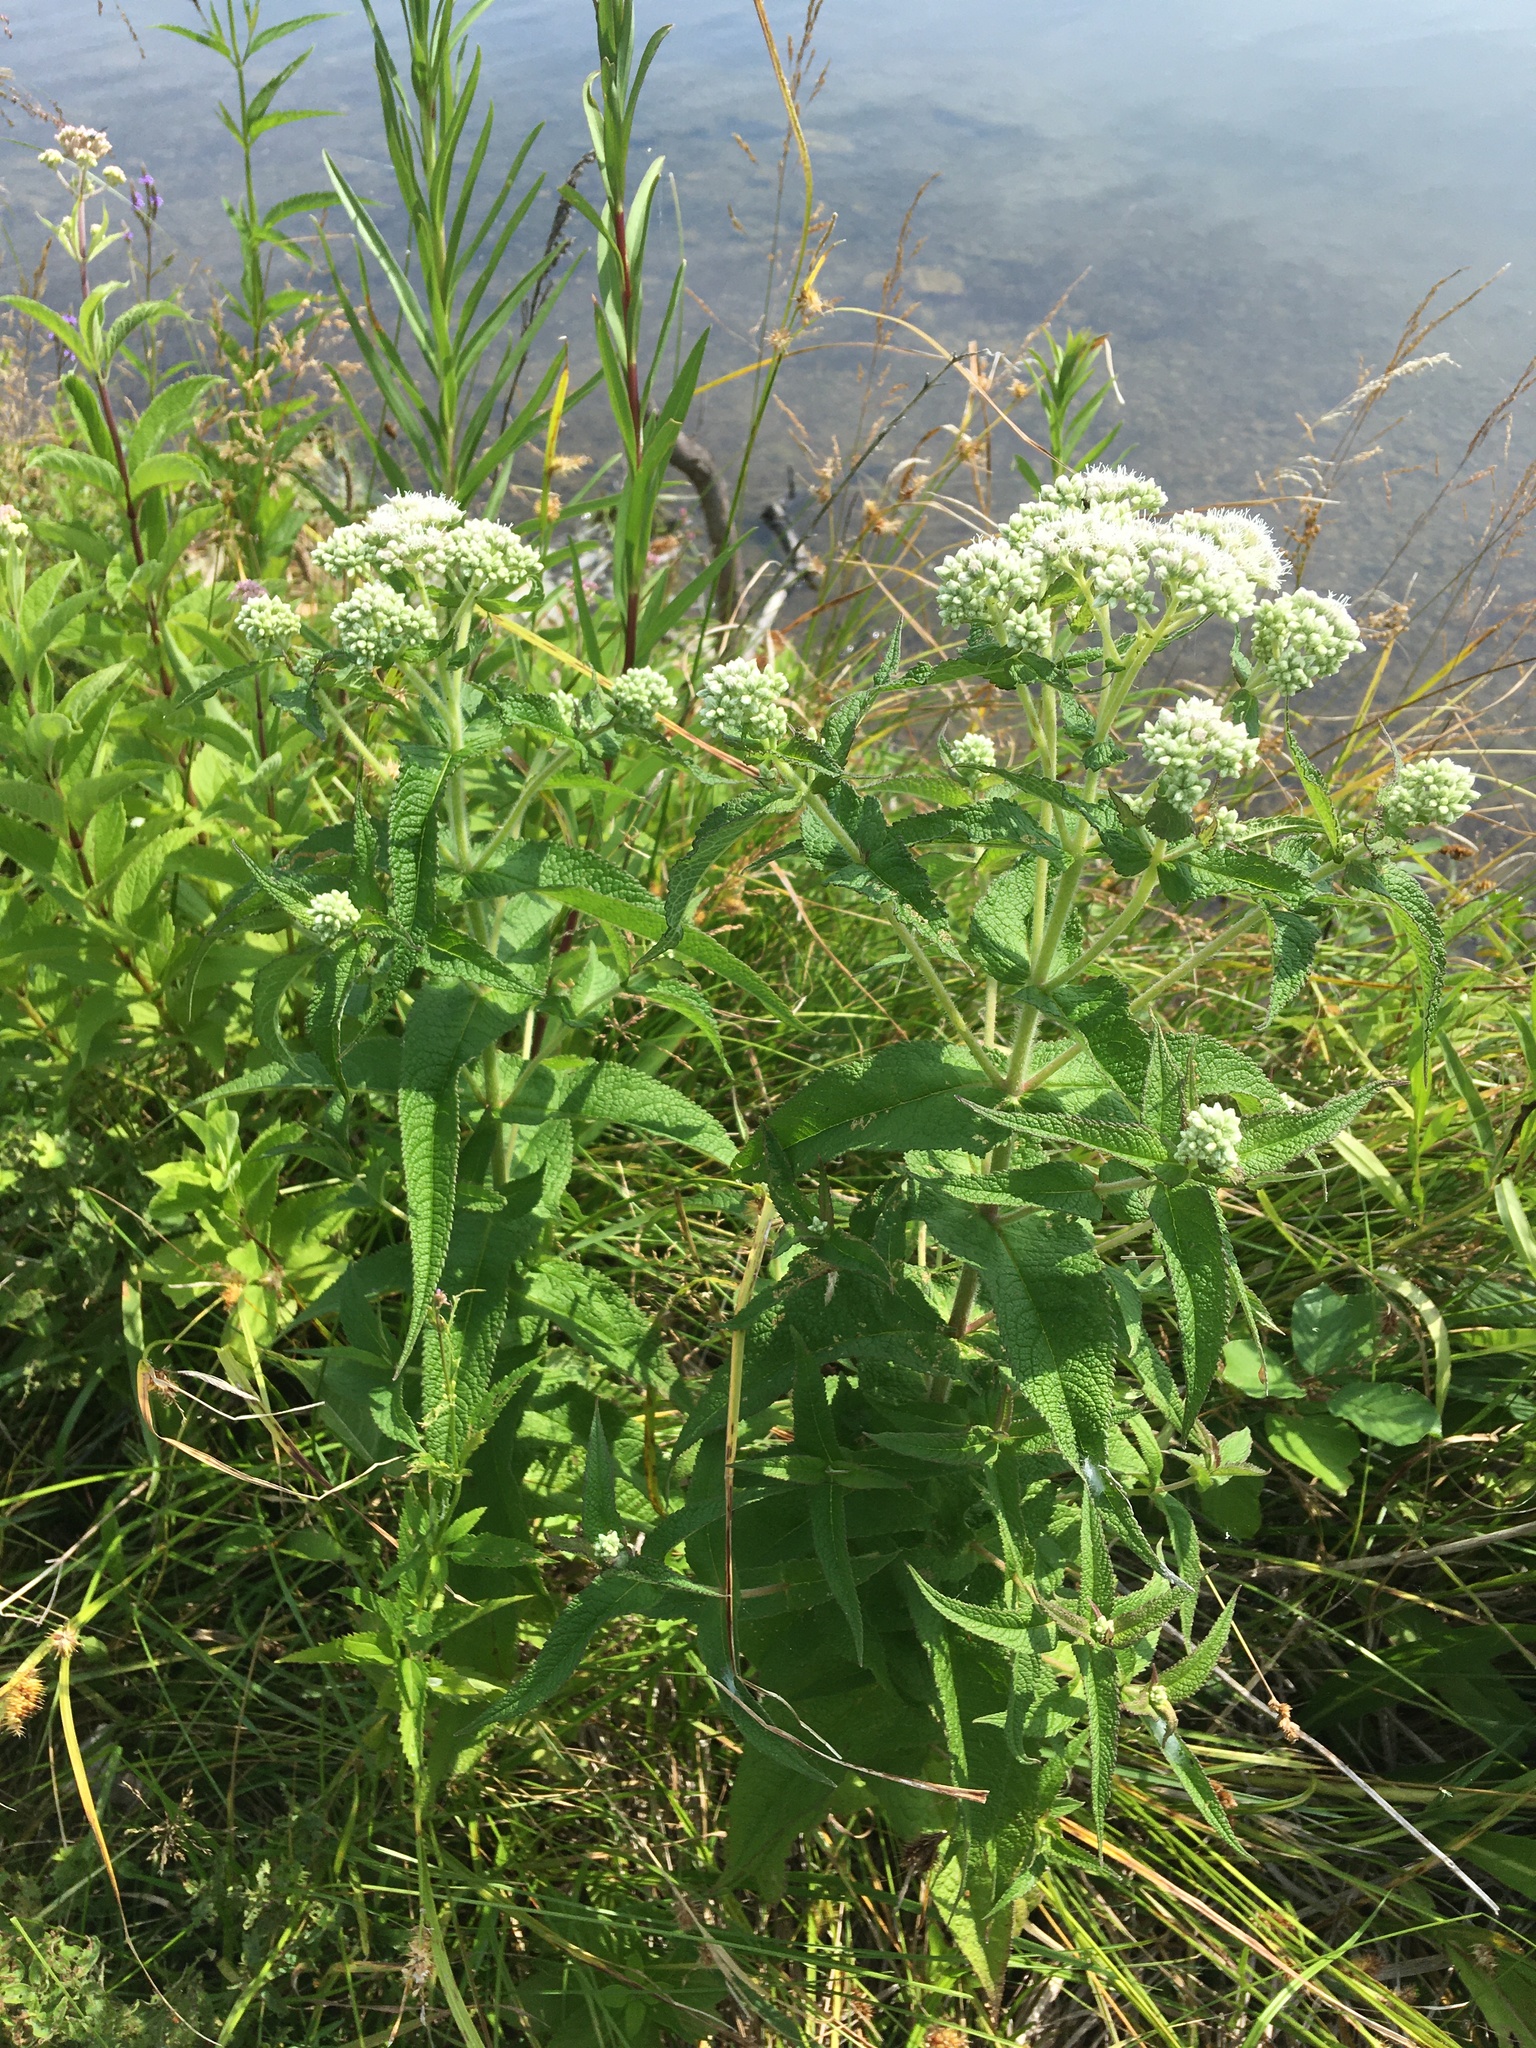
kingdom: Plantae
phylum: Tracheophyta
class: Magnoliopsida
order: Asterales
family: Asteraceae
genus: Eupatorium
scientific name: Eupatorium perfoliatum
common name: Boneset
